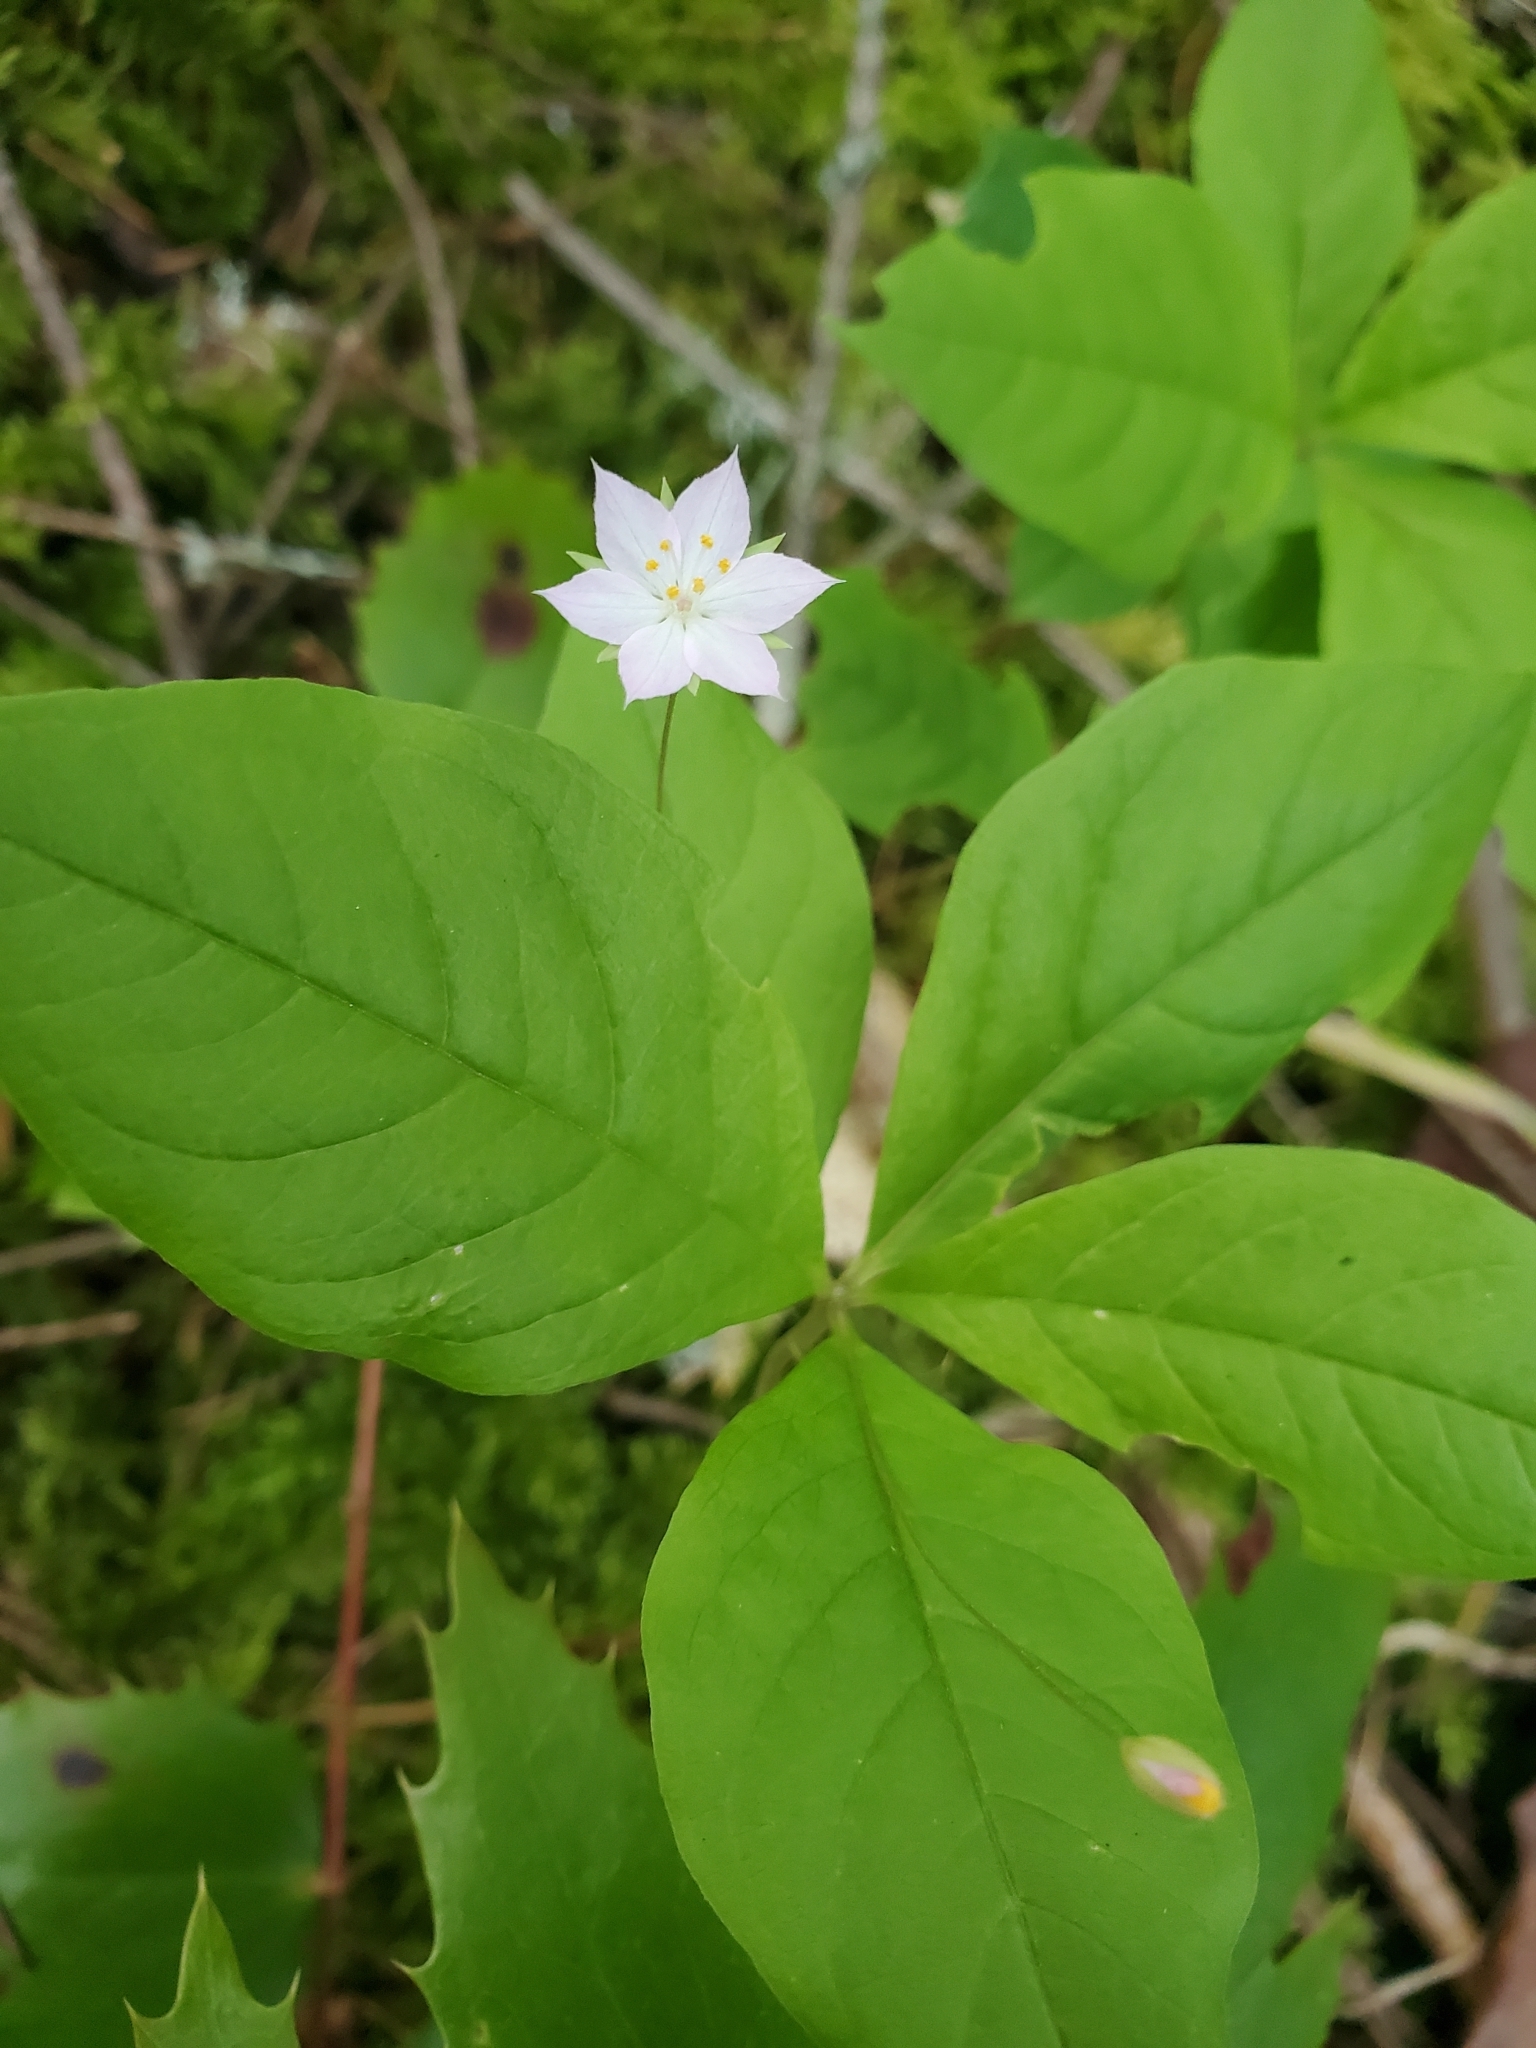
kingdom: Plantae
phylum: Tracheophyta
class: Magnoliopsida
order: Ericales
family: Primulaceae
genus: Lysimachia
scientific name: Lysimachia latifolia
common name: Pacific starflower
